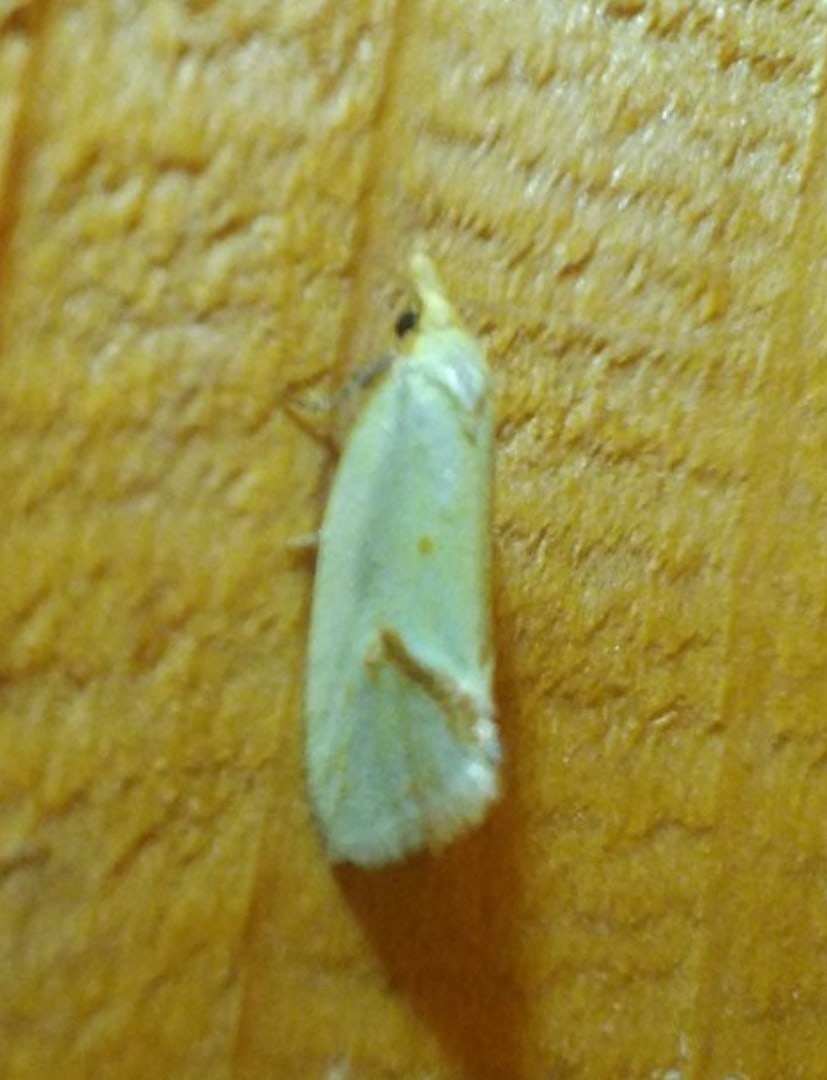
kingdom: Animalia
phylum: Arthropoda
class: Insecta
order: Lepidoptera
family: Tortricidae
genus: Agapeta
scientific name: Agapeta hamana
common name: Common yellow conch
